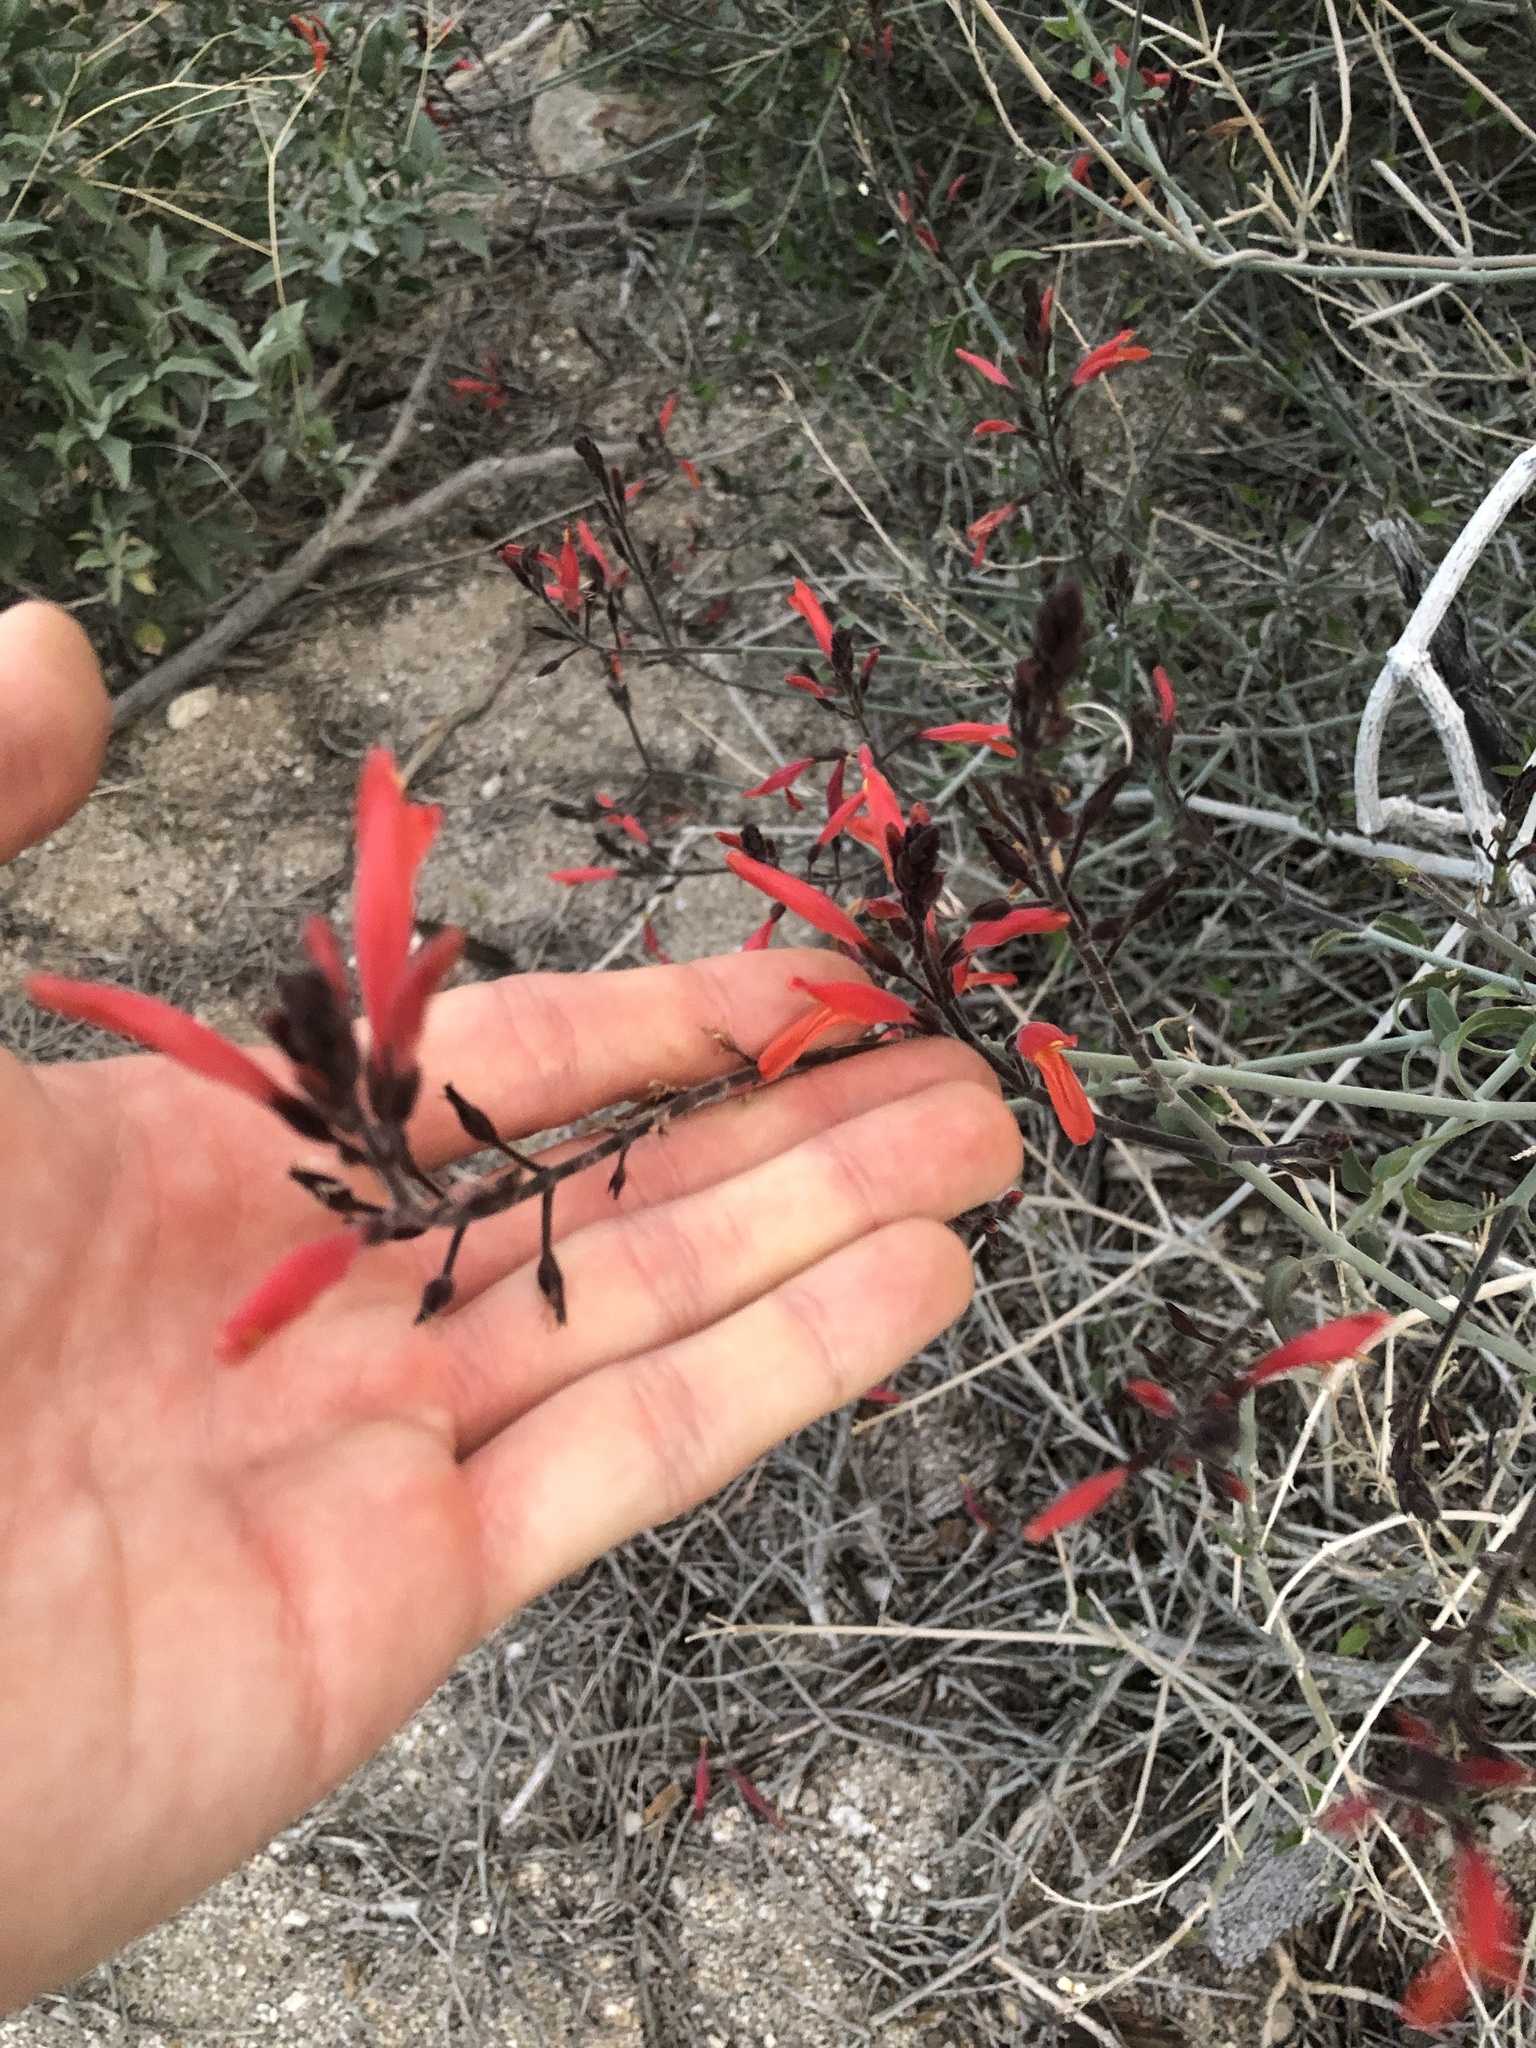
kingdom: Plantae
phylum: Tracheophyta
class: Magnoliopsida
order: Lamiales
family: Acanthaceae
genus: Justicia
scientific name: Justicia californica
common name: Chuparosa-honeysuckle
